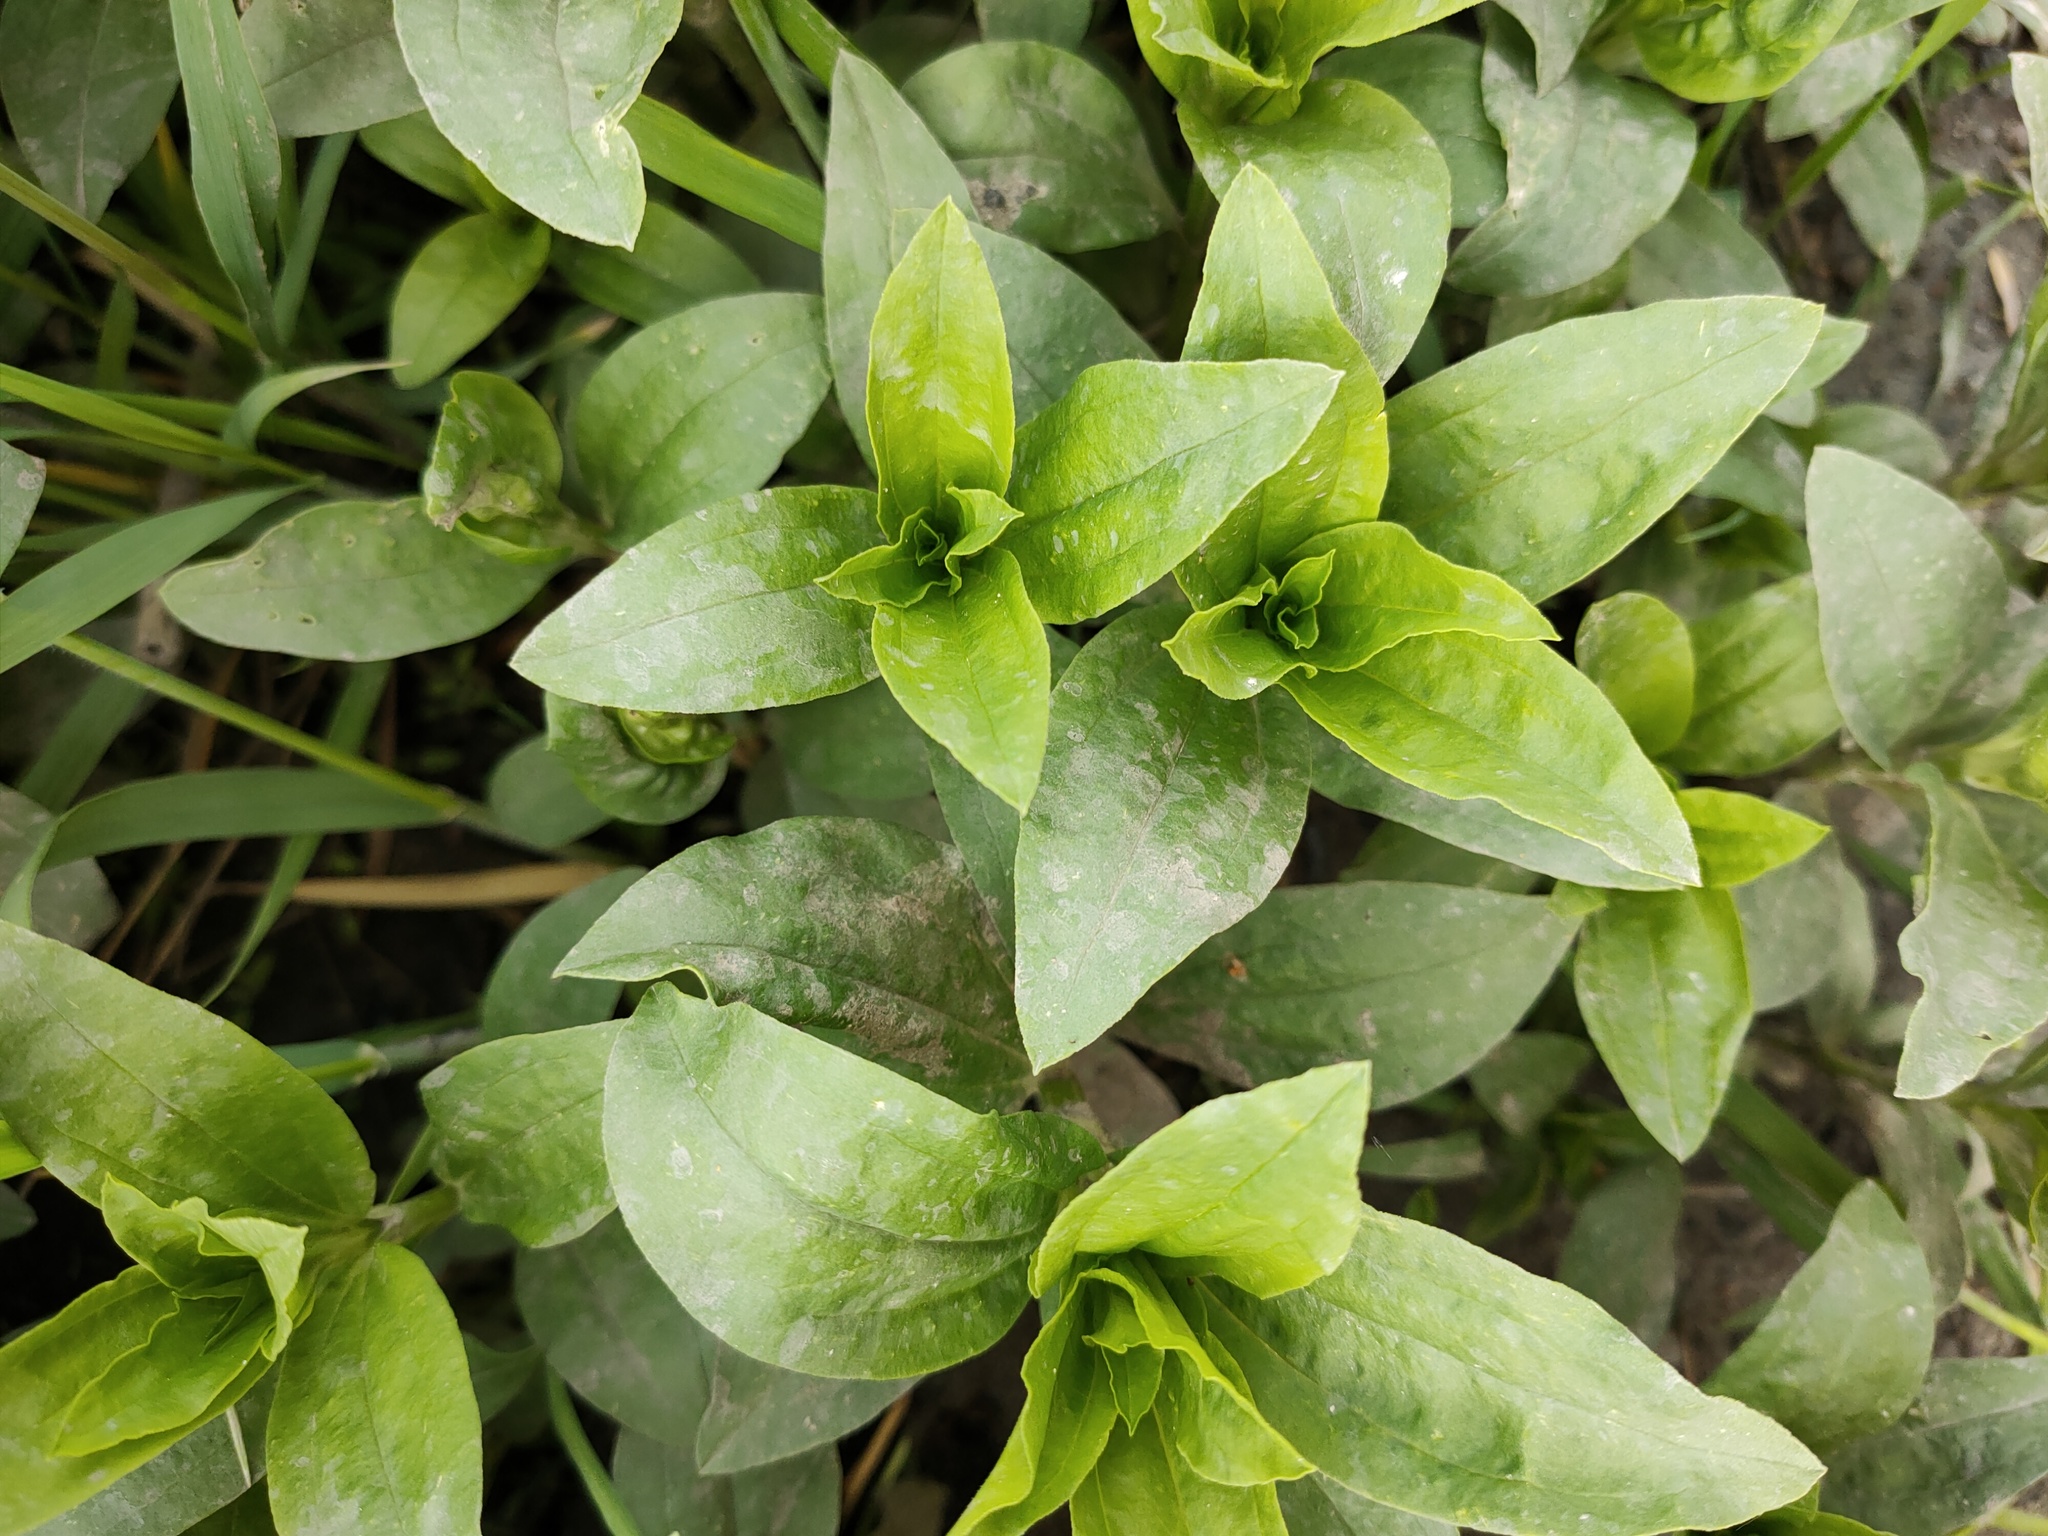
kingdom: Plantae
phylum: Tracheophyta
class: Magnoliopsida
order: Caryophyllales
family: Caryophyllaceae
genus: Saponaria
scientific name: Saponaria officinalis
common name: Soapwort
